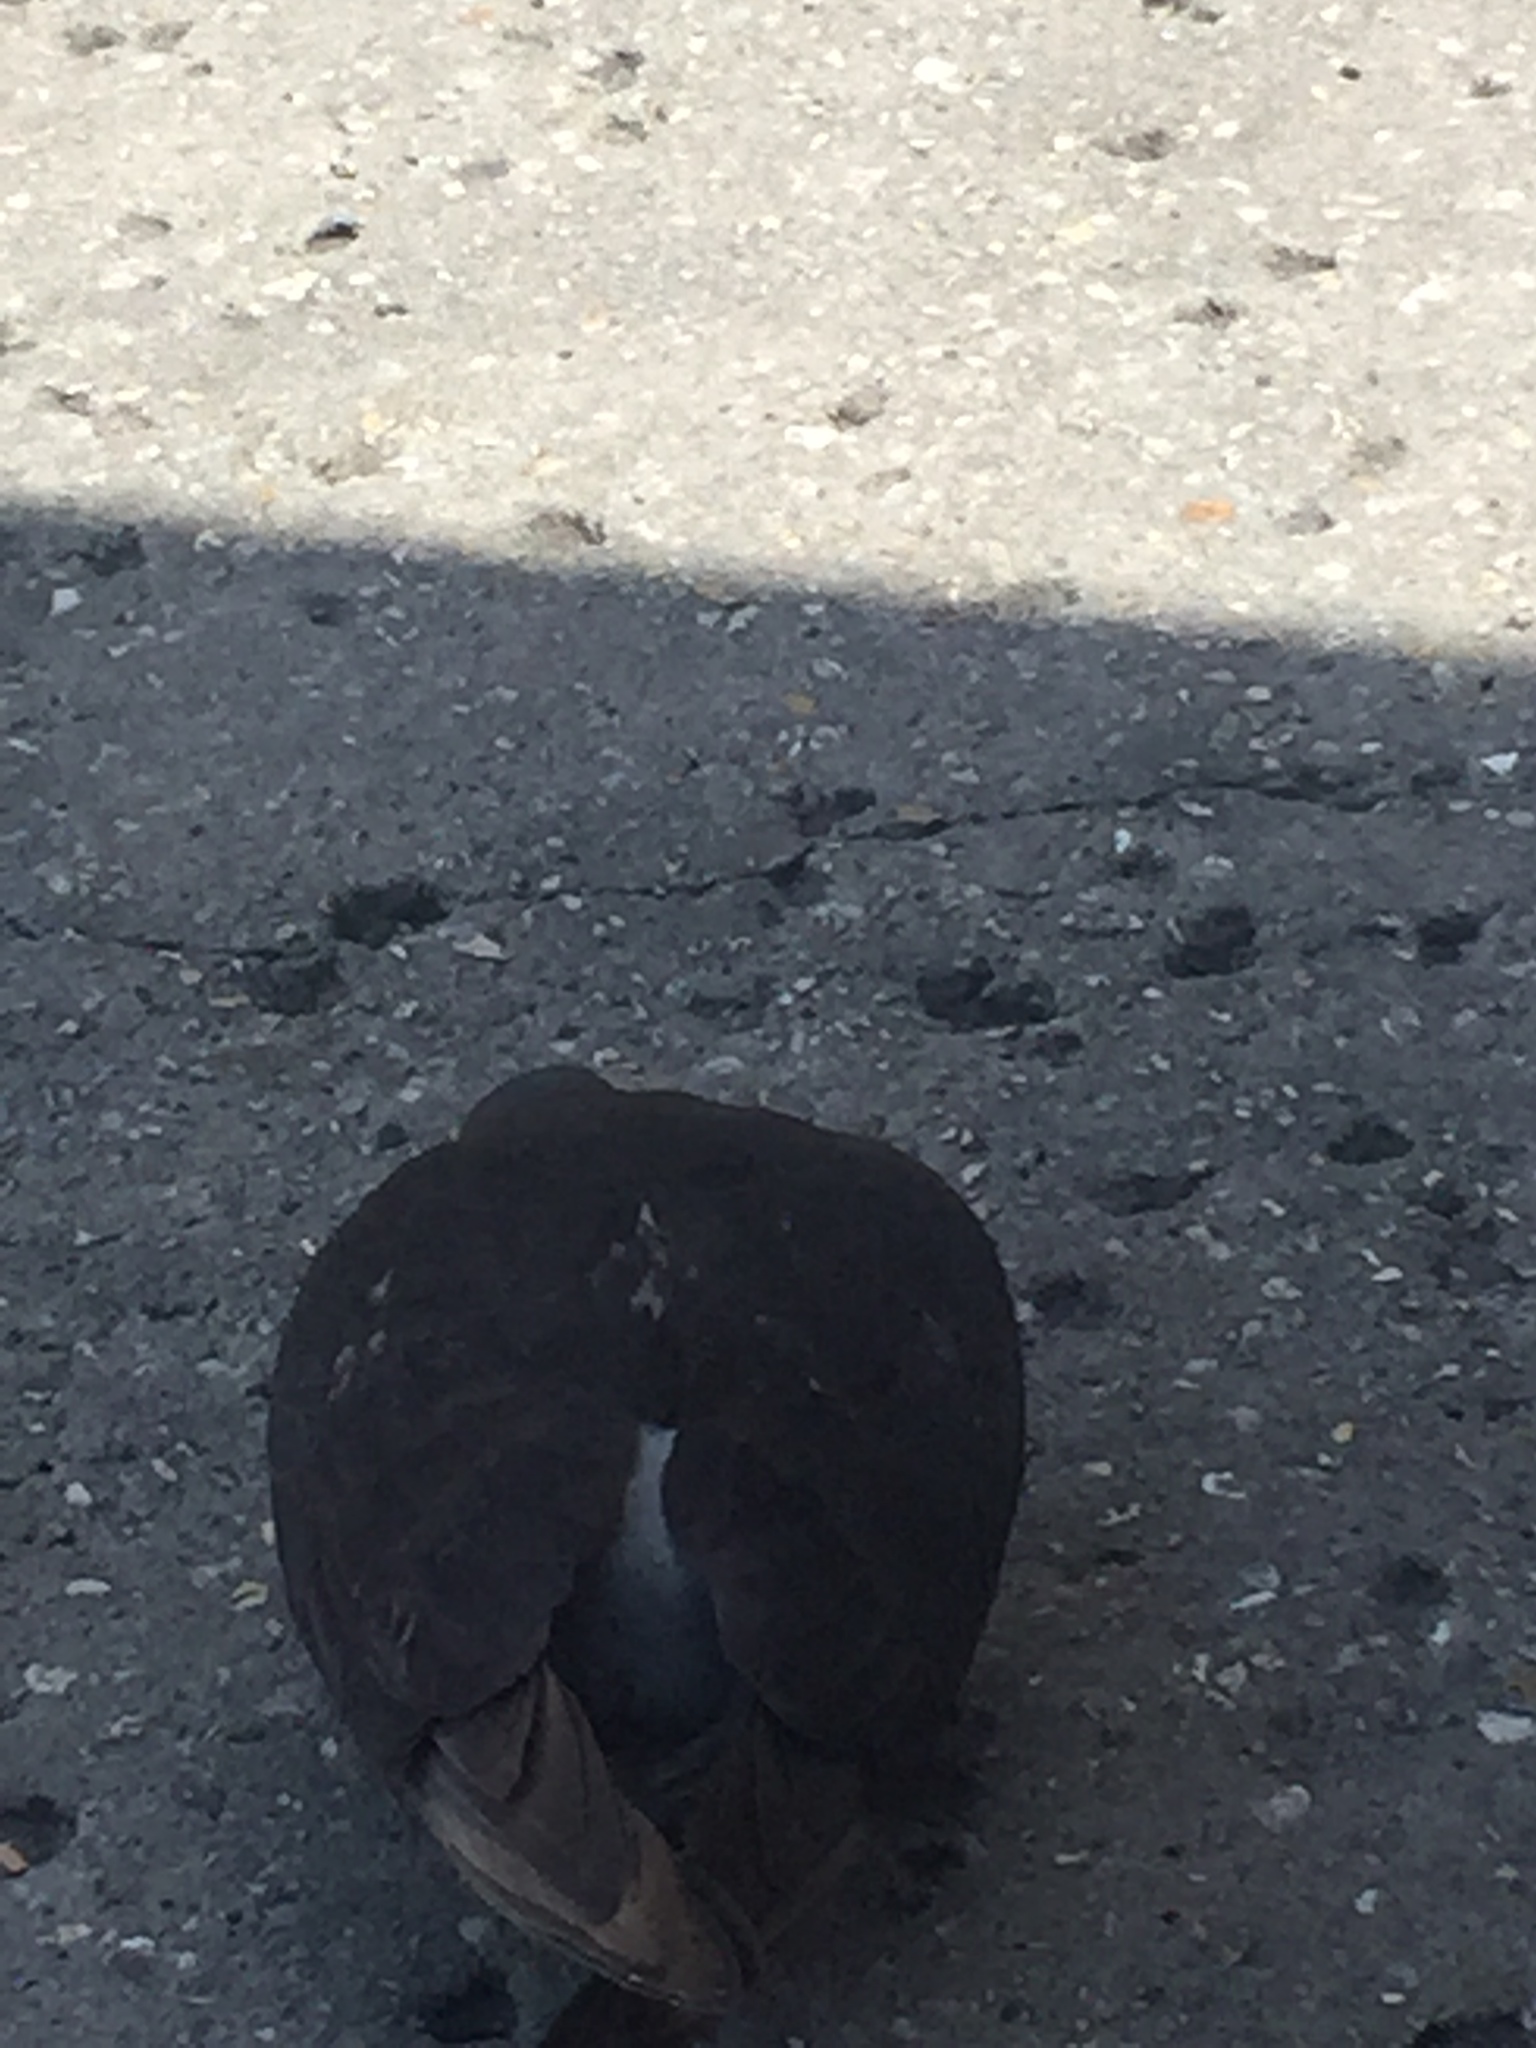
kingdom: Animalia
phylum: Chordata
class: Aves
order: Columbiformes
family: Columbidae
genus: Columba
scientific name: Columba livia
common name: Rock pigeon
